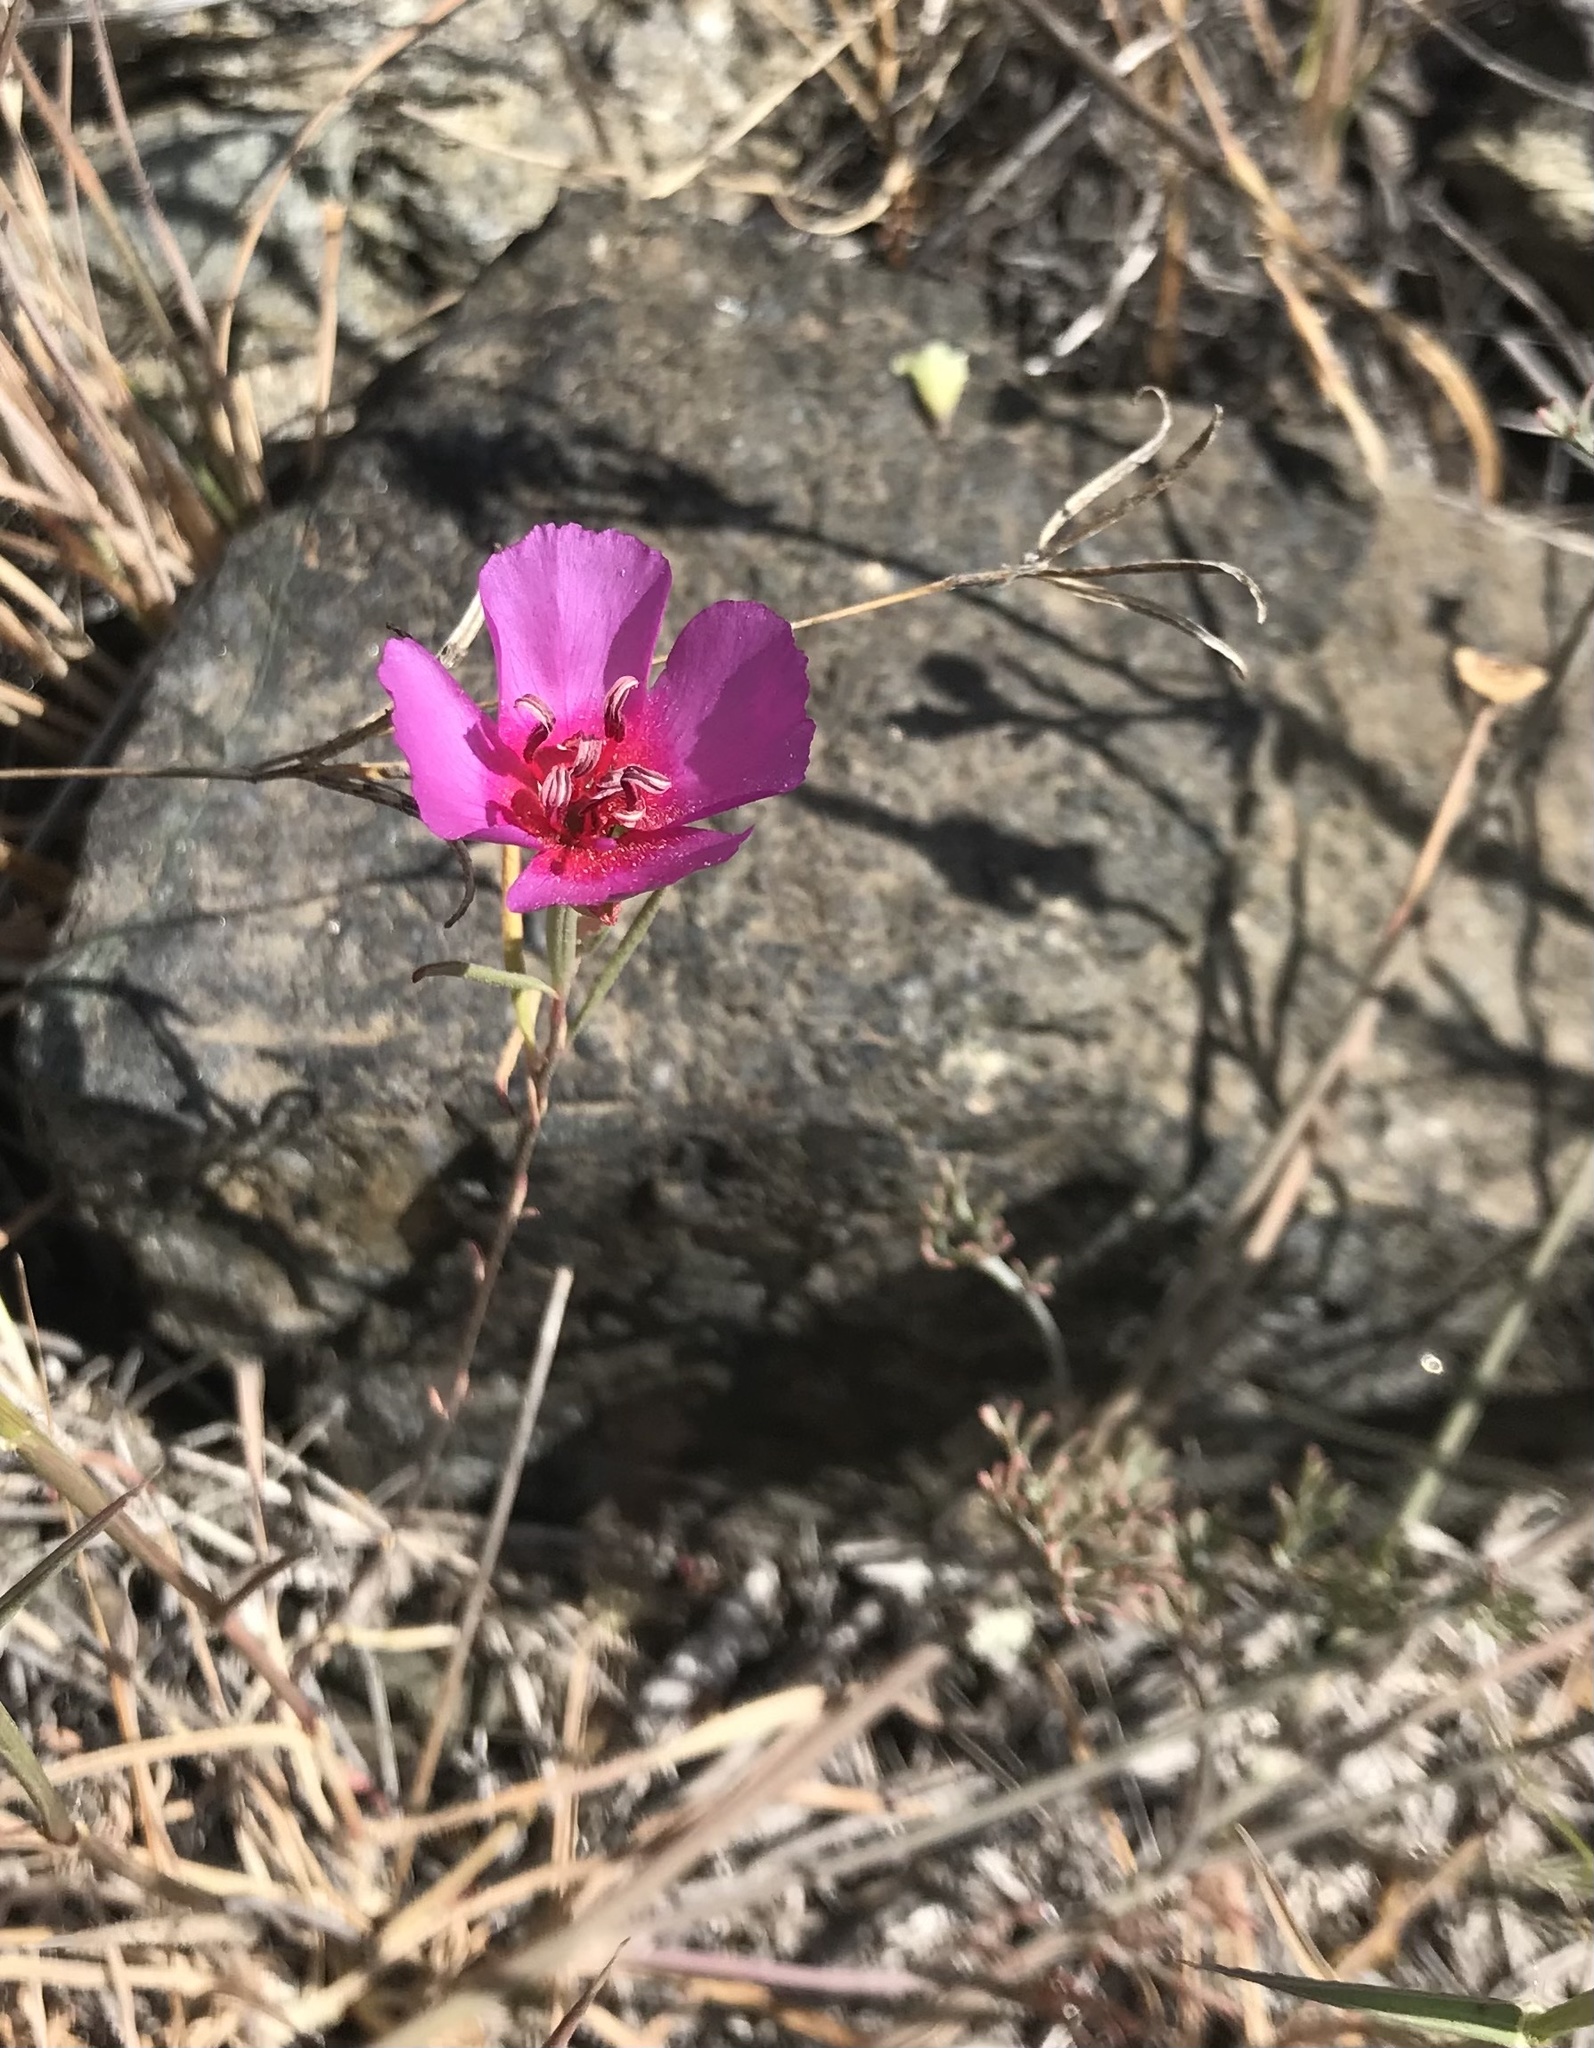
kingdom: Plantae
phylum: Tracheophyta
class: Magnoliopsida
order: Myrtales
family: Onagraceae
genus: Clarkia
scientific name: Clarkia rubicunda
